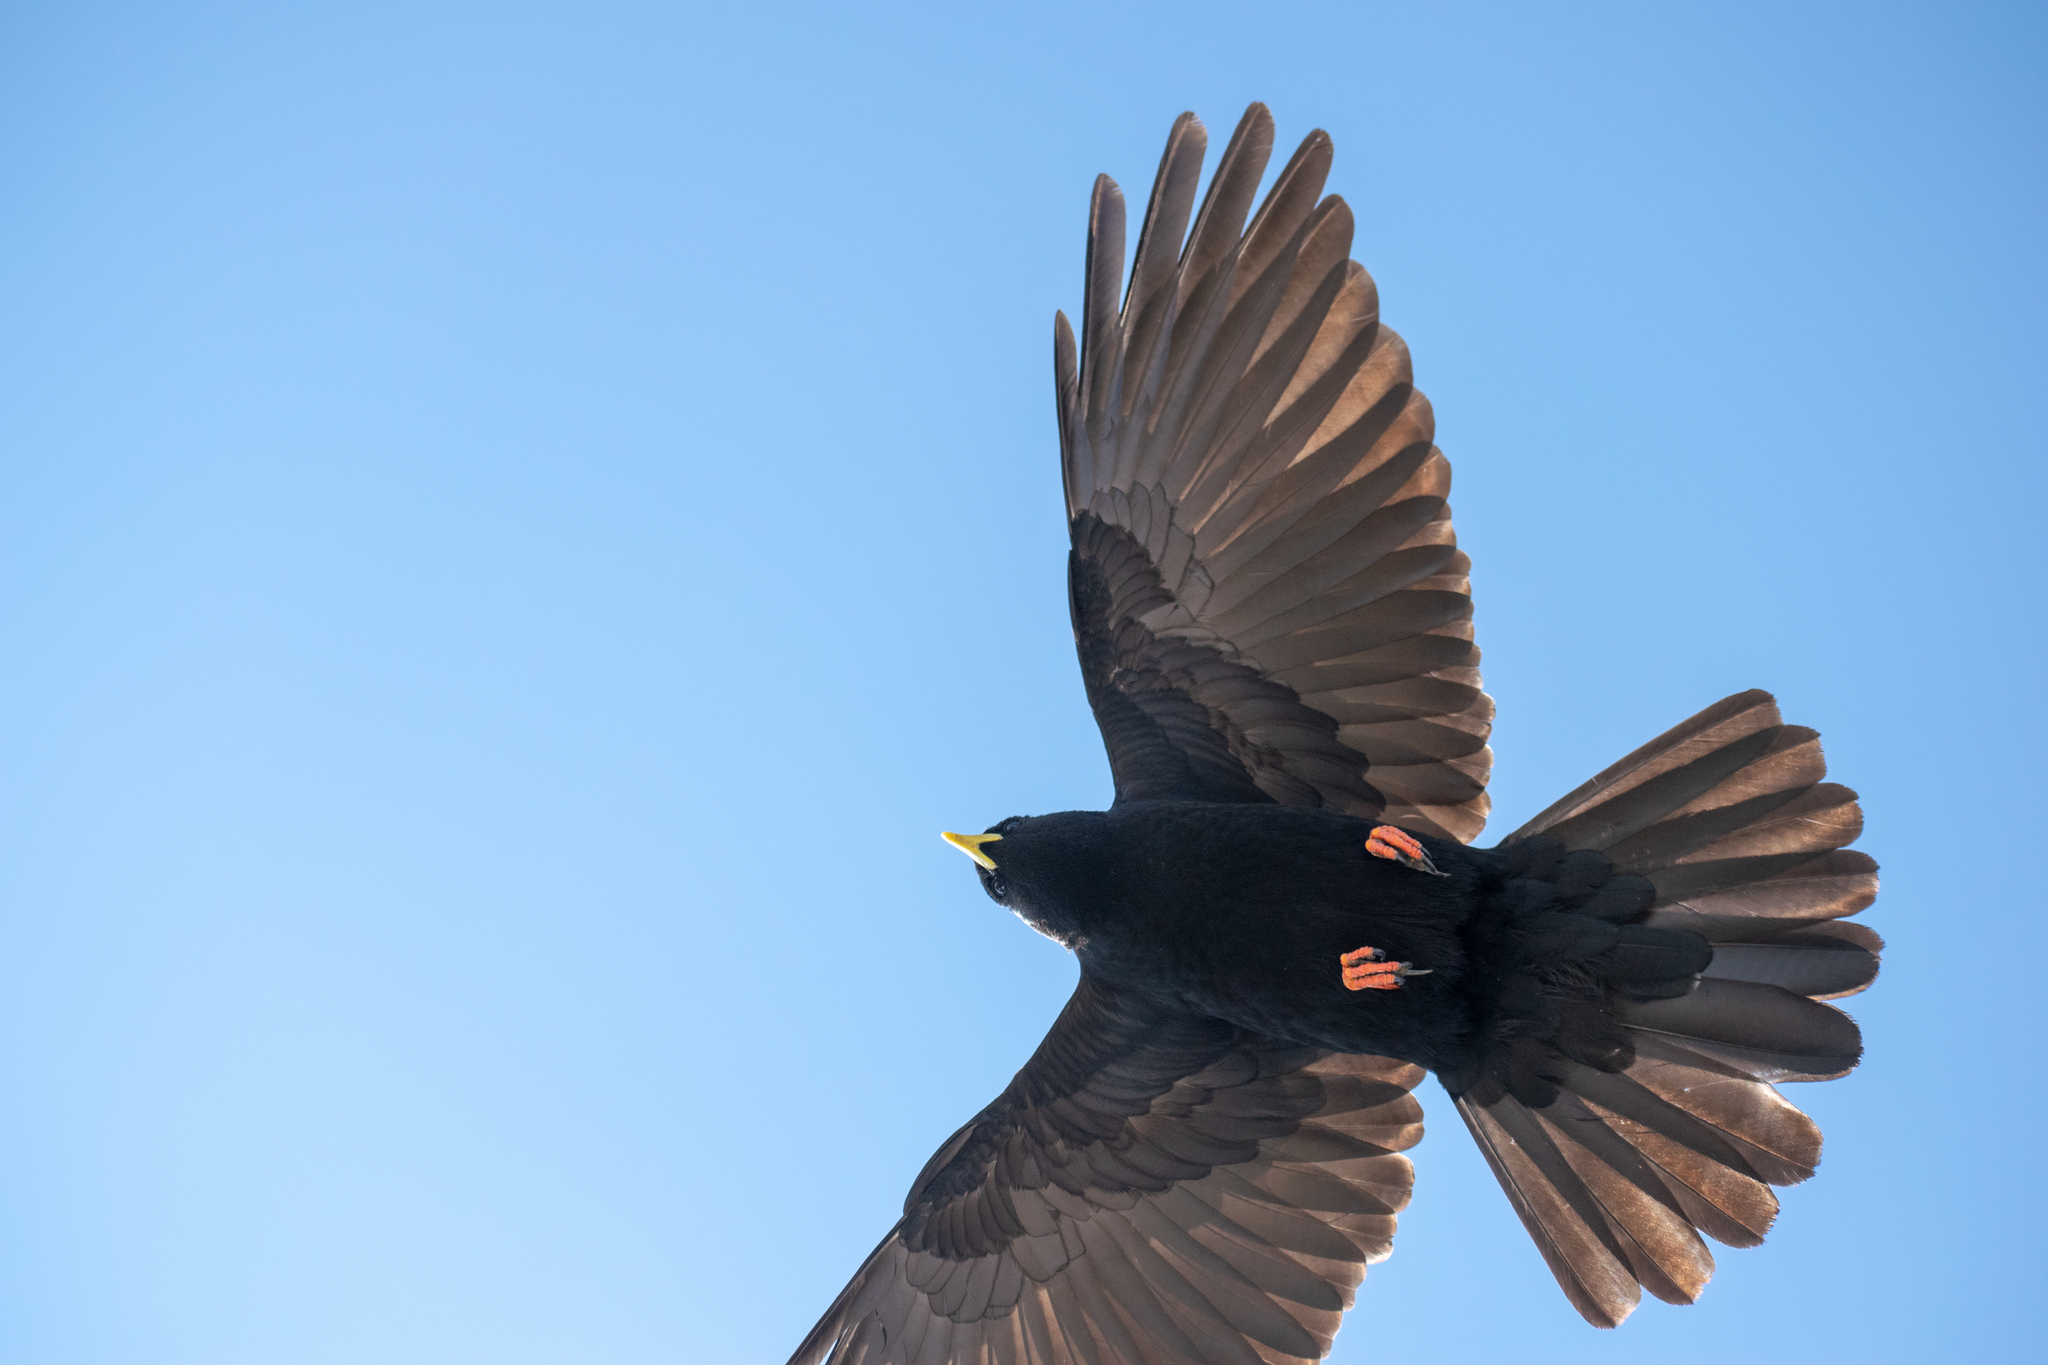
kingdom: Animalia
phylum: Chordata
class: Aves
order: Passeriformes
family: Corvidae
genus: Pyrrhocorax
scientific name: Pyrrhocorax graculus
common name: Alpine chough
